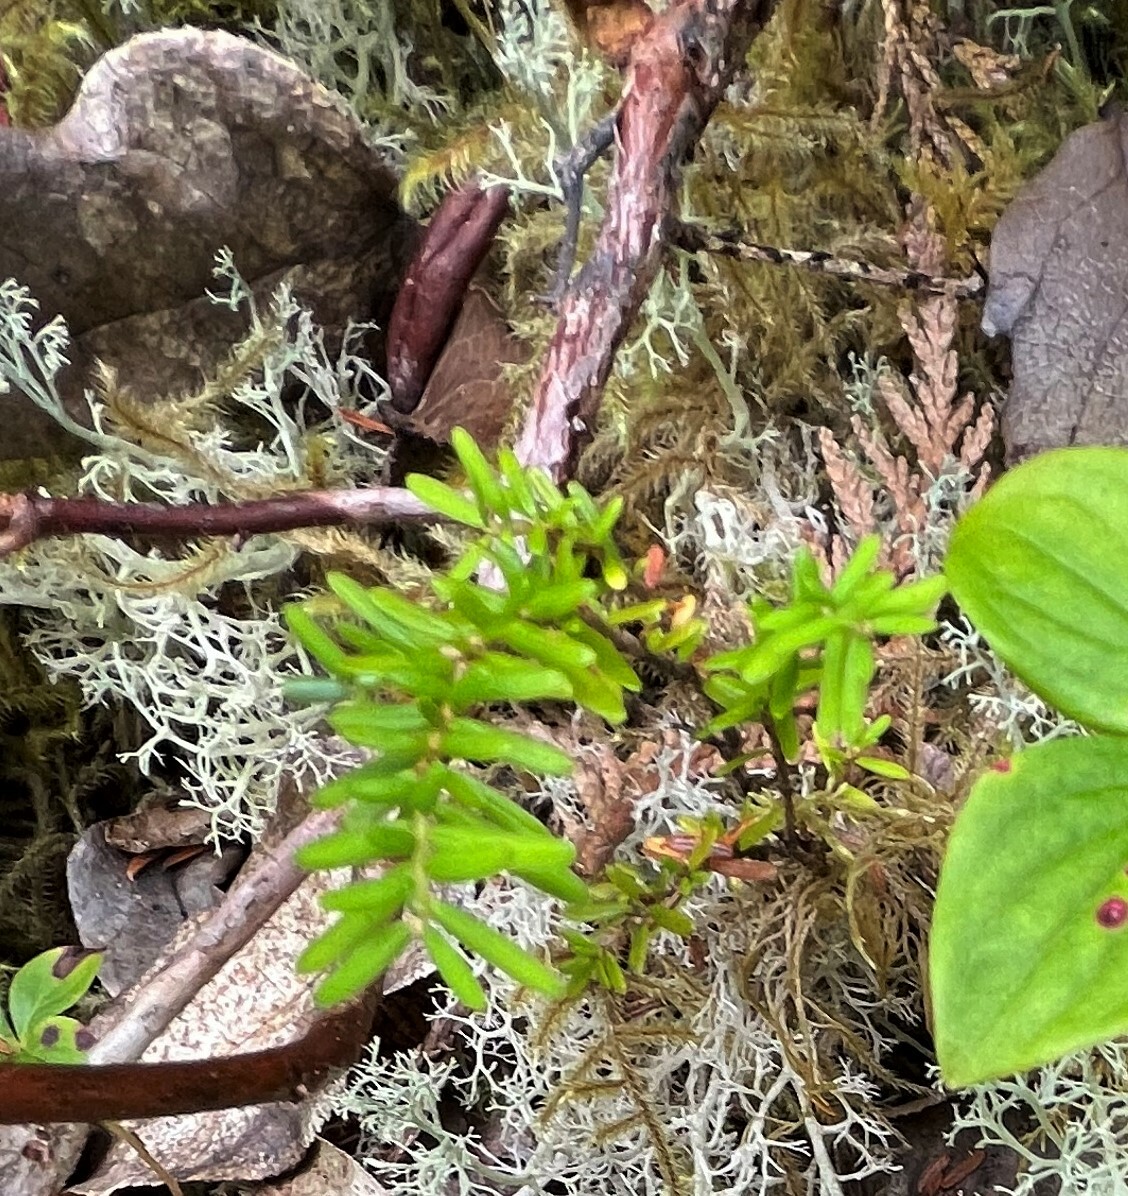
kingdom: Plantae
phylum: Tracheophyta
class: Pinopsida
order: Pinales
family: Pinaceae
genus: Tsuga
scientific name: Tsuga heterophylla
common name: Western hemlock
